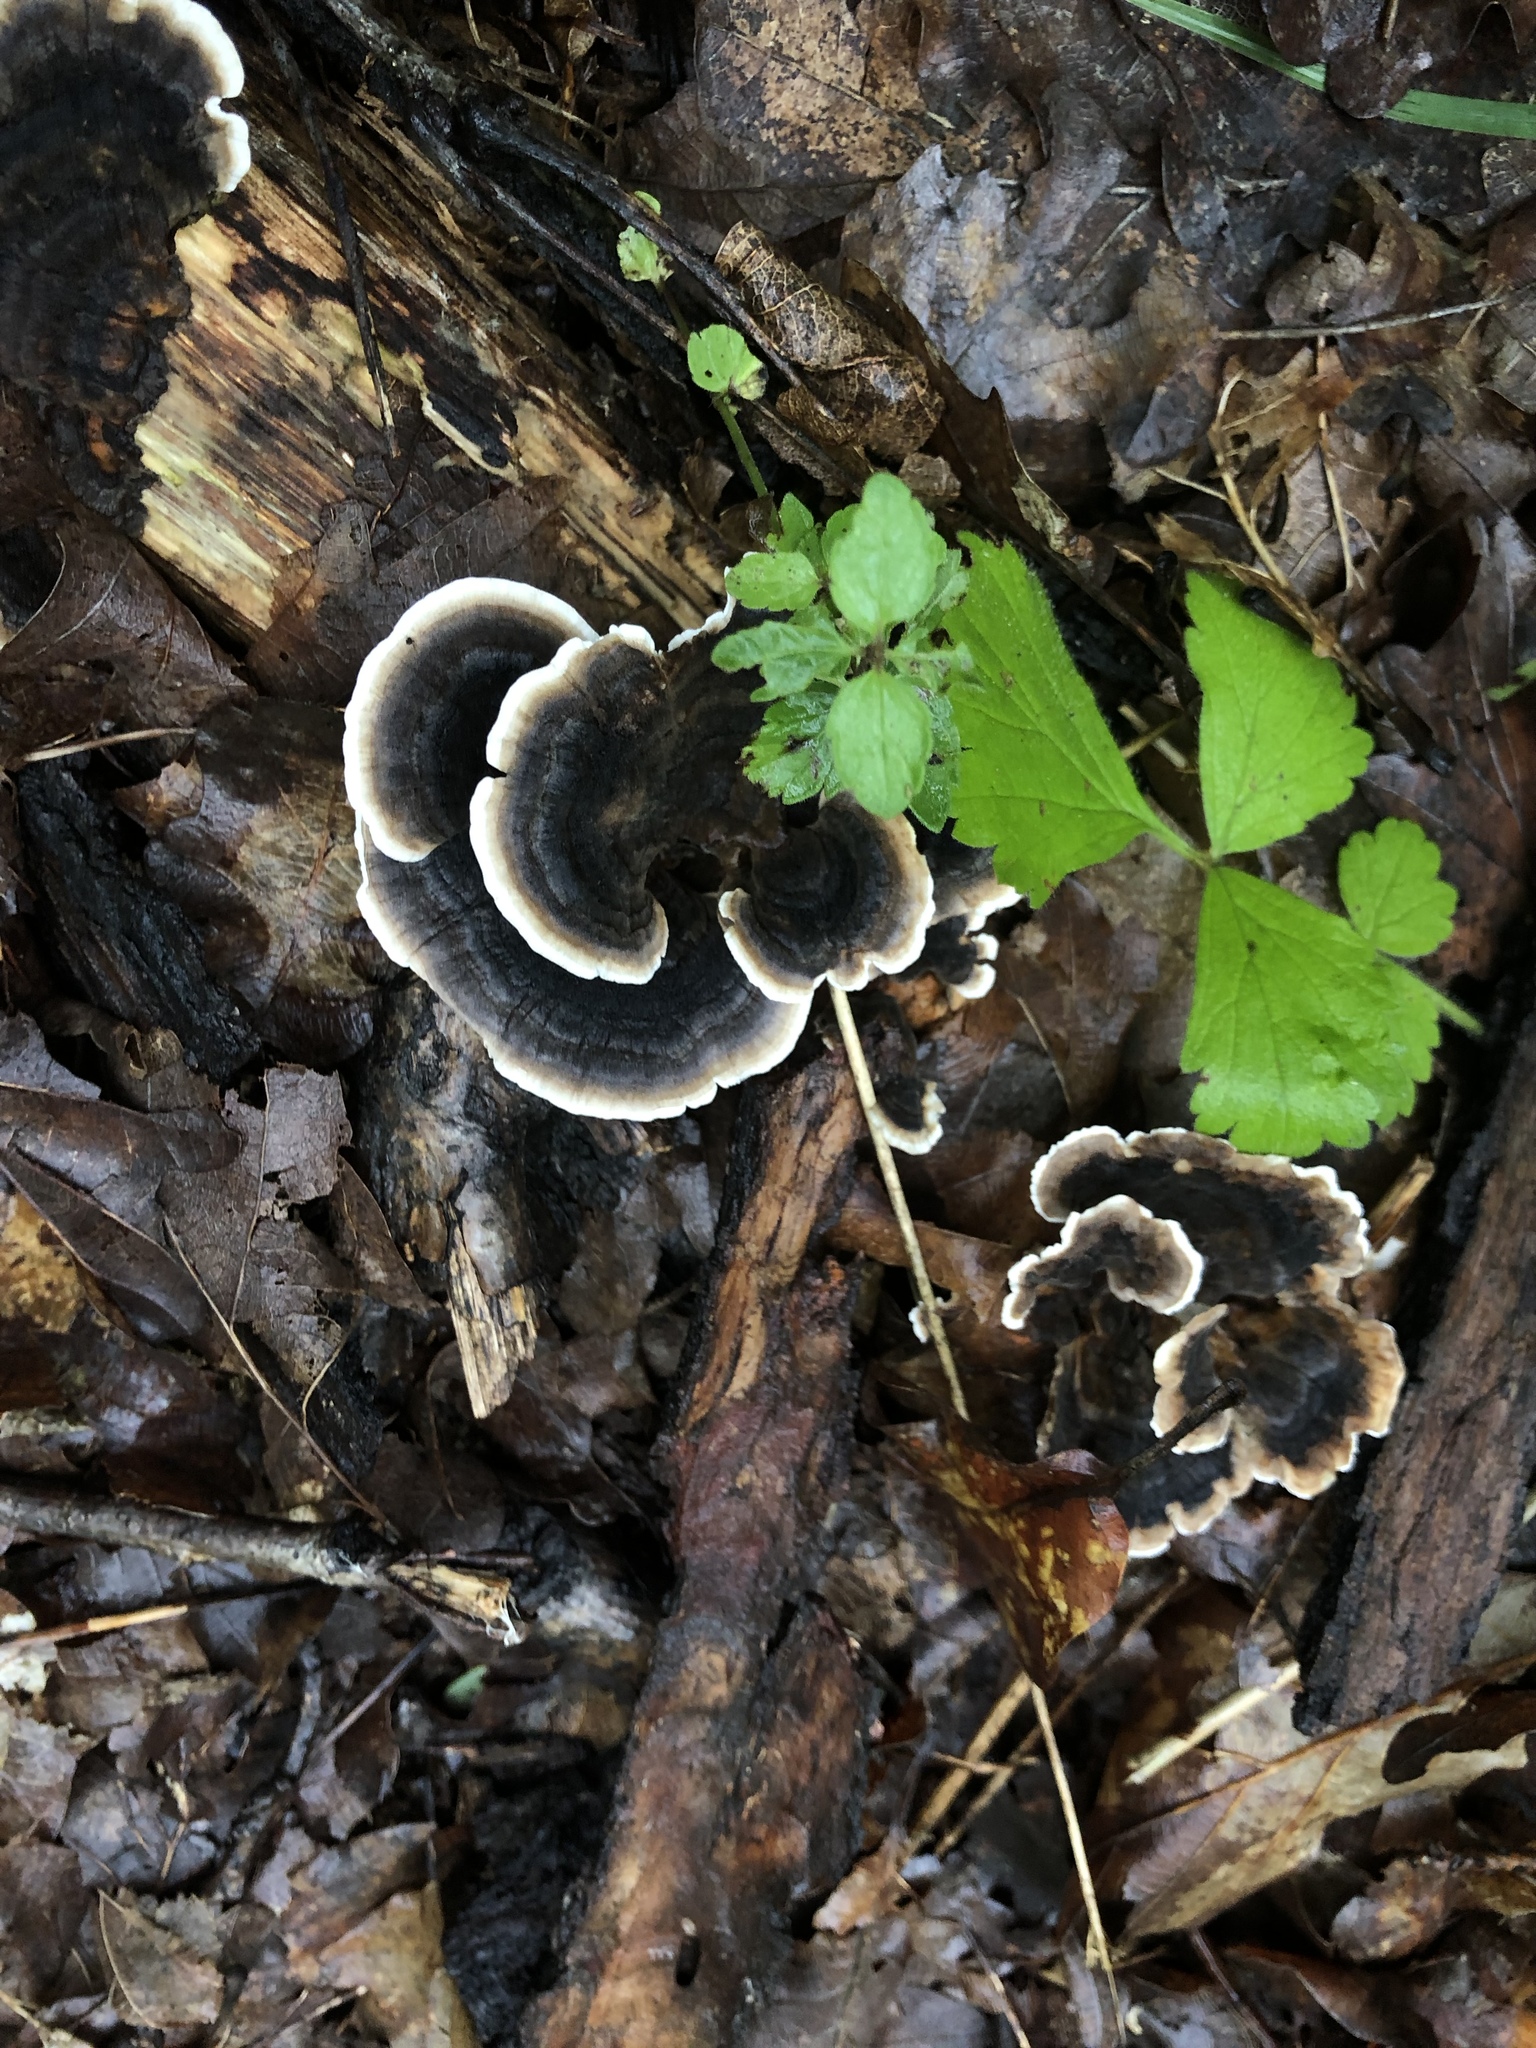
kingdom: Fungi
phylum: Basidiomycota
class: Agaricomycetes
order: Polyporales
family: Polyporaceae
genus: Trametes
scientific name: Trametes versicolor
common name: Turkeytail
